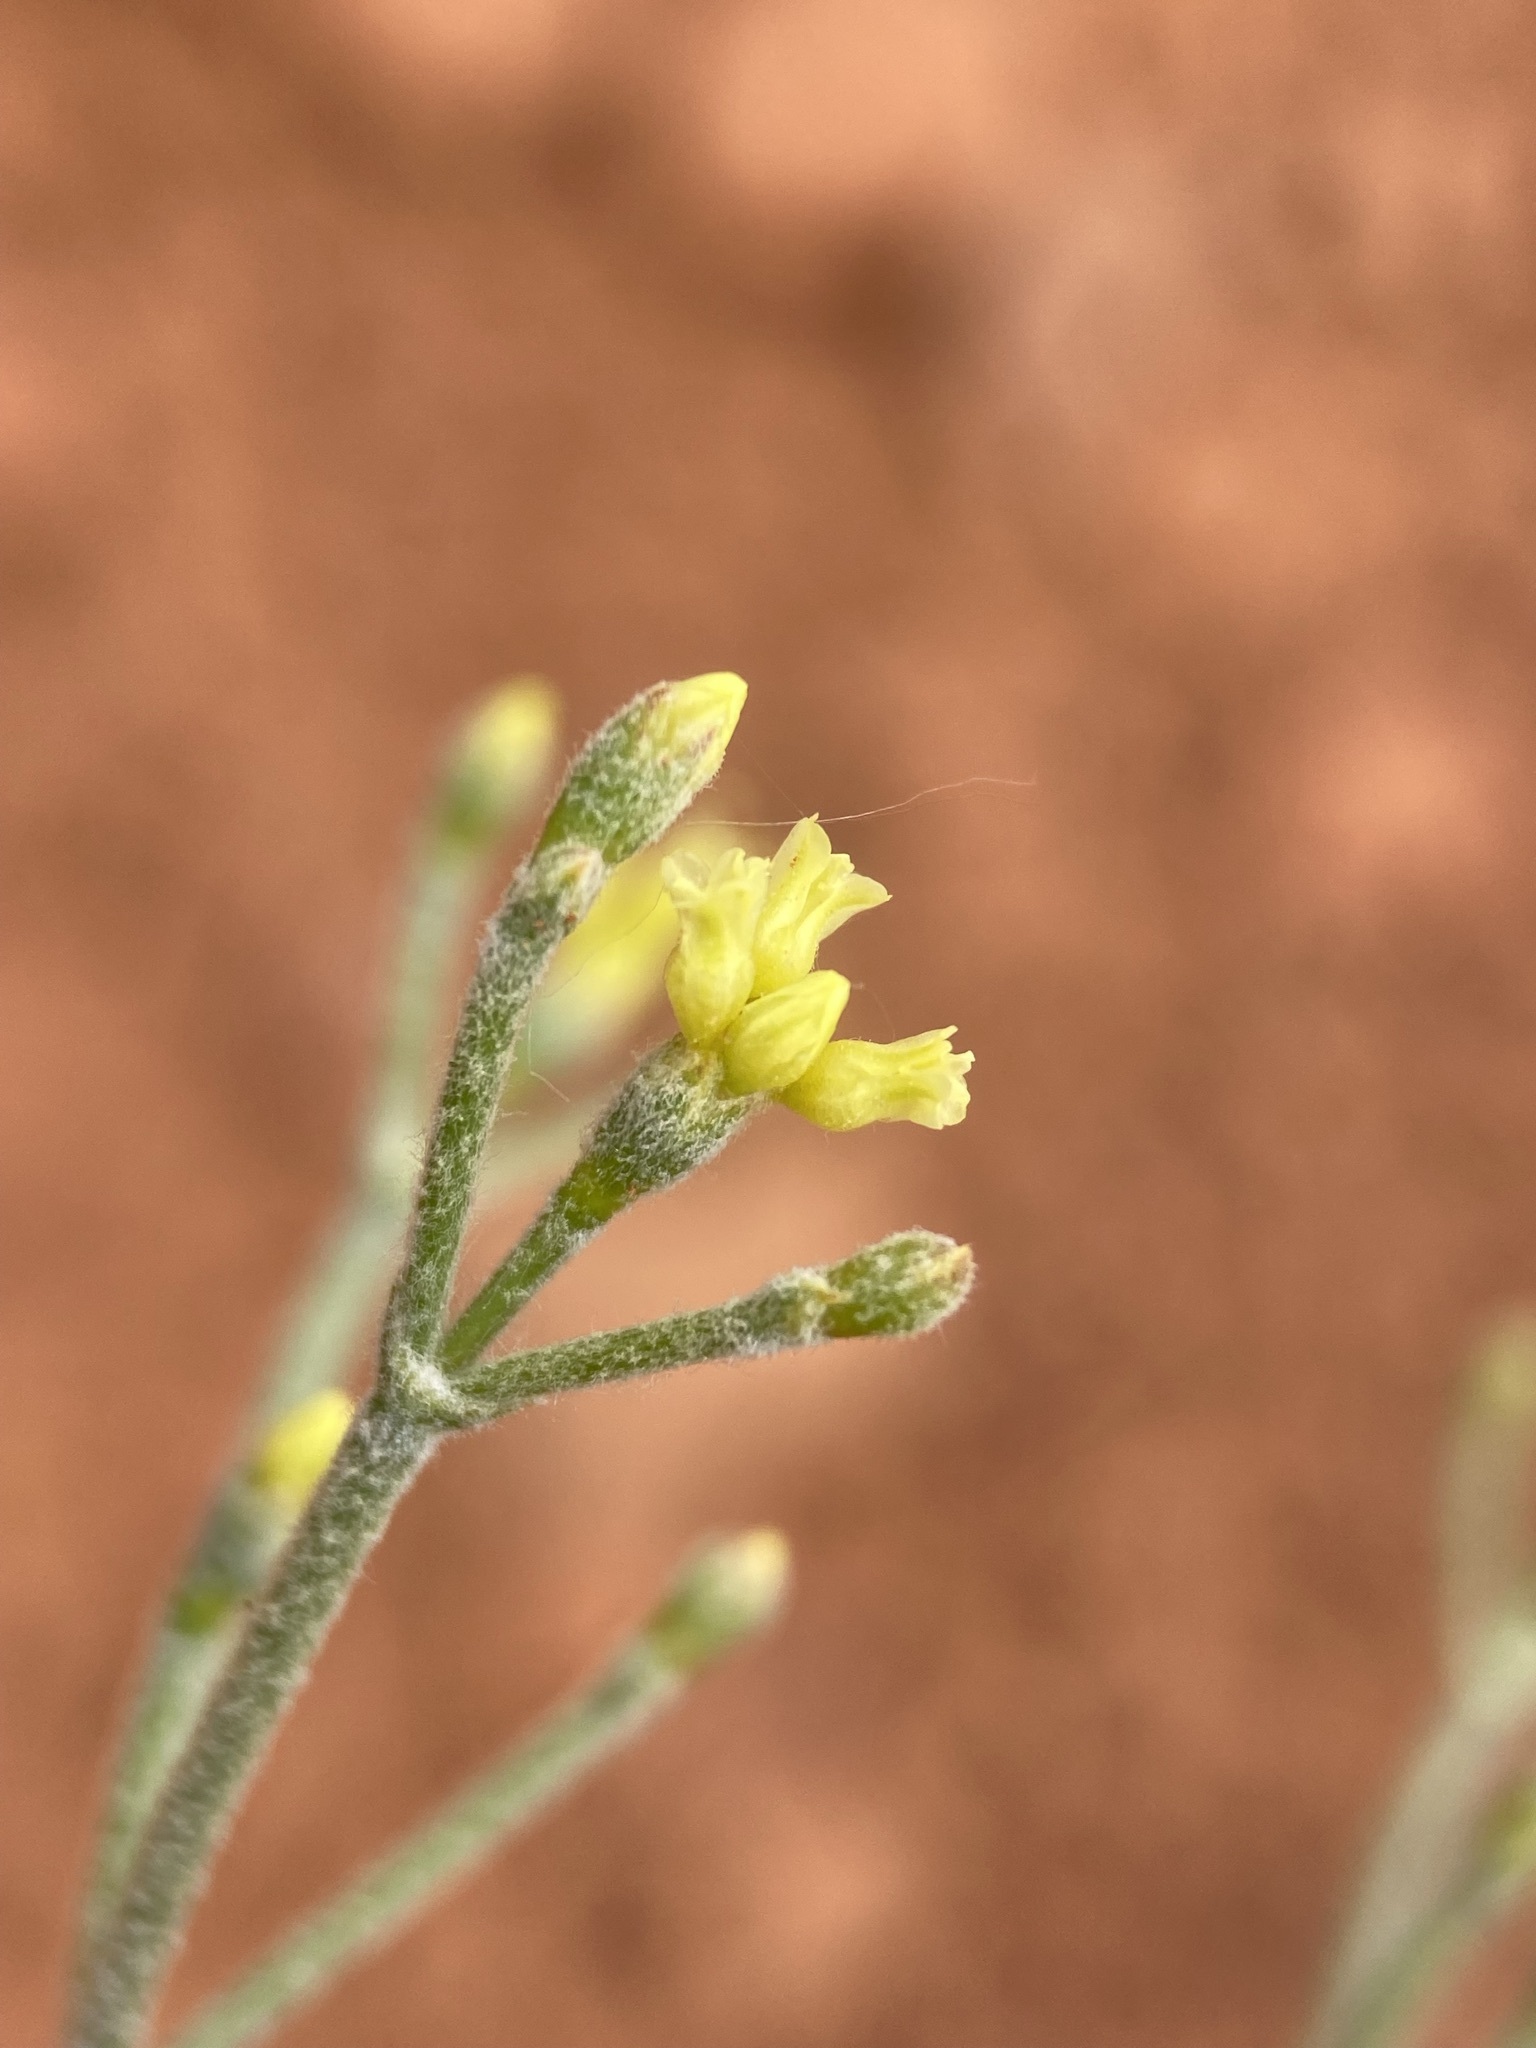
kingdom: Plantae
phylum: Tracheophyta
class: Magnoliopsida
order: Caryophyllales
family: Polygonaceae
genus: Eriogonum
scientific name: Eriogonum brevicaule
